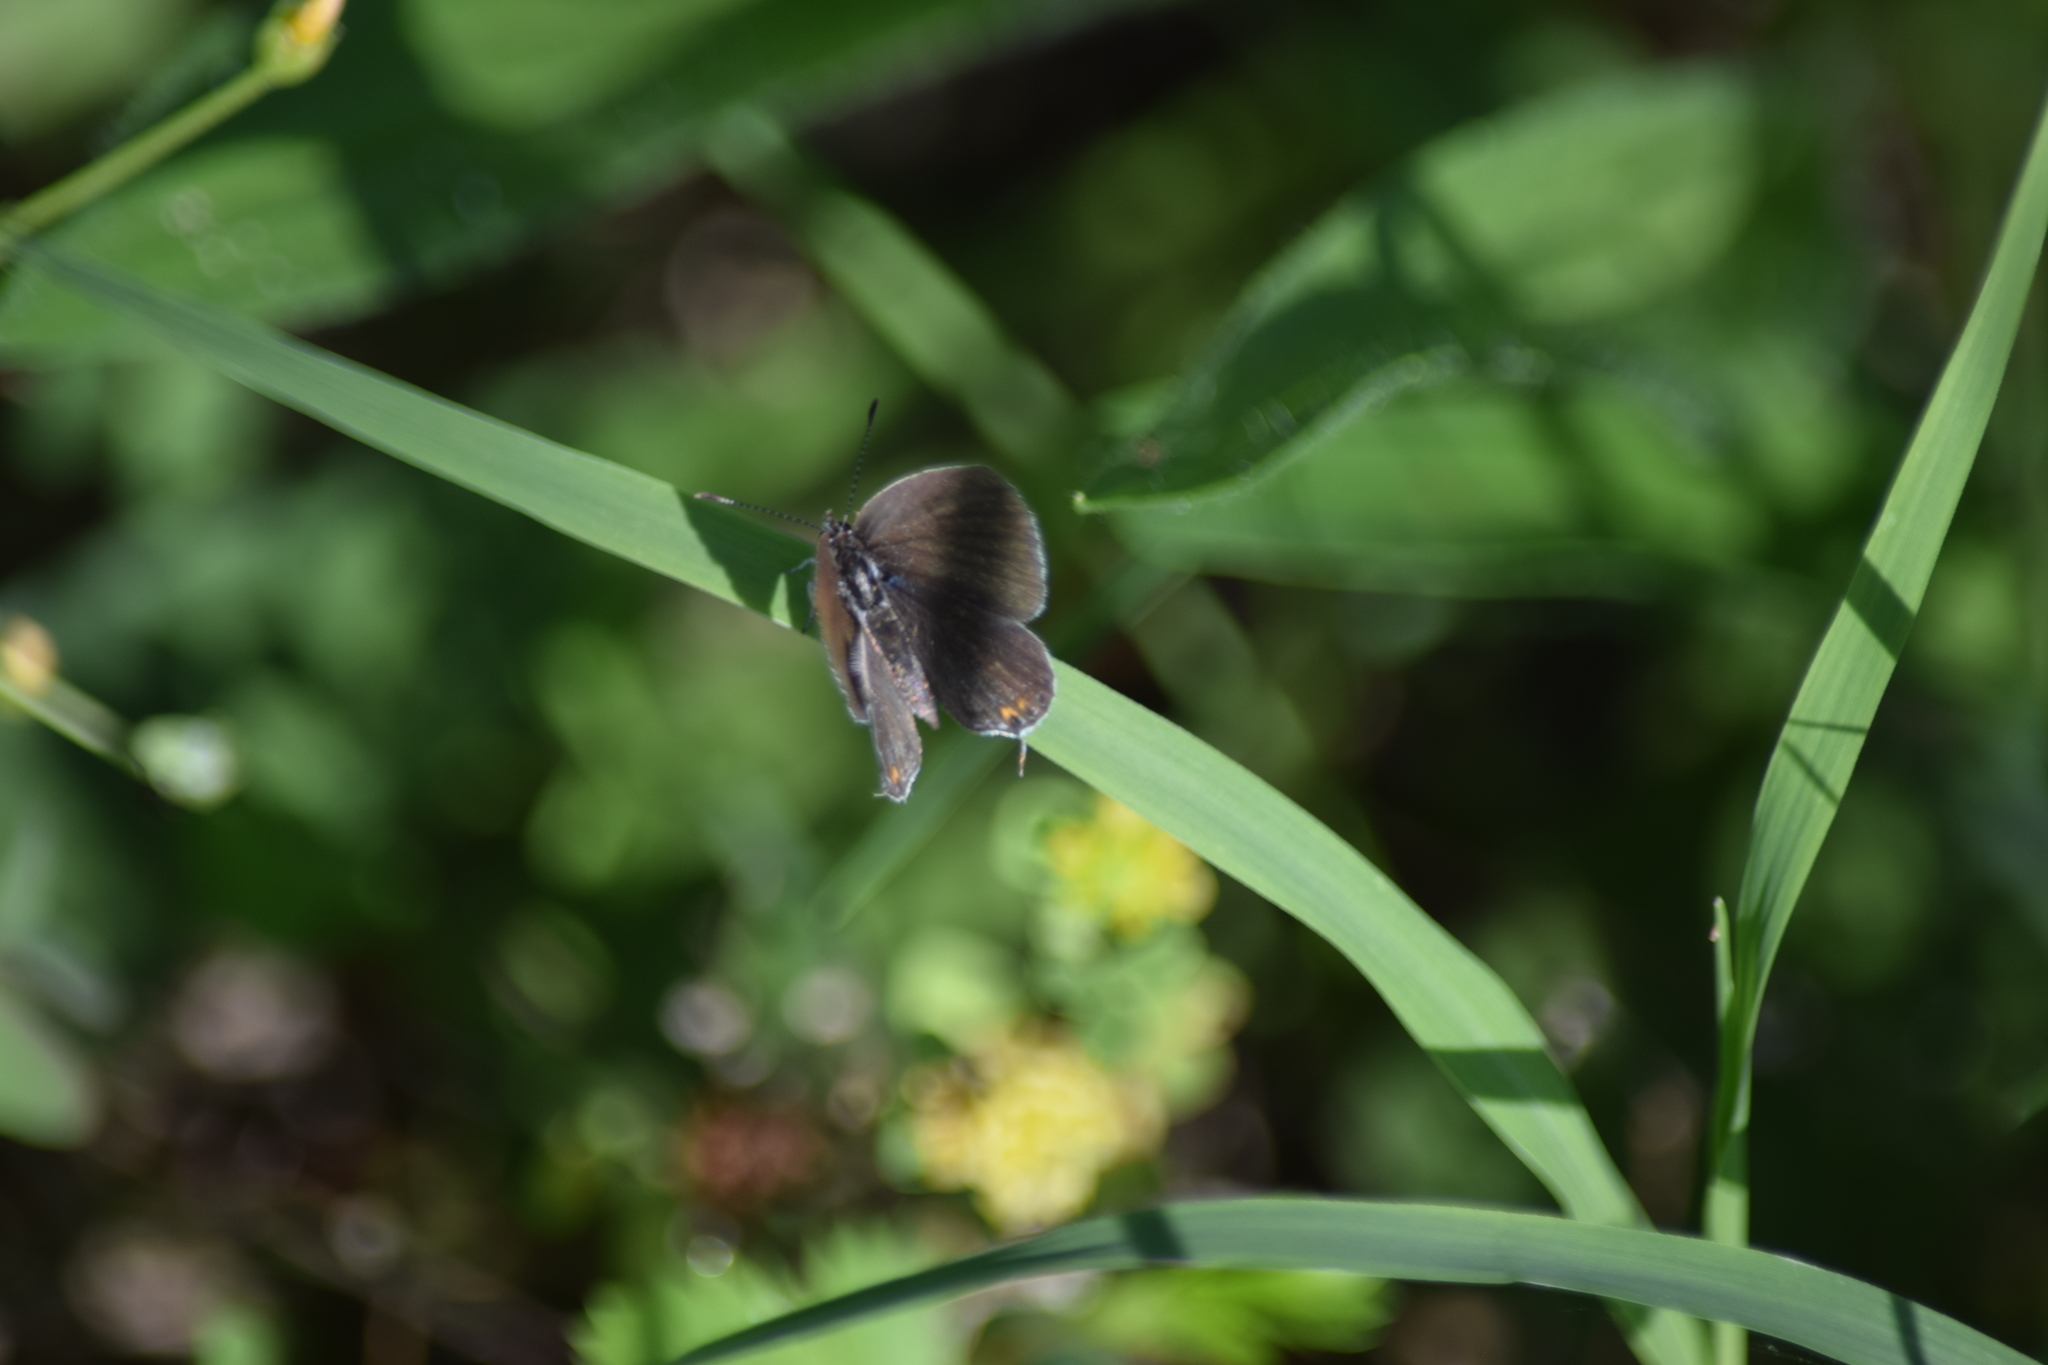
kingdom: Animalia
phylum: Arthropoda
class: Insecta
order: Lepidoptera
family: Lycaenidae
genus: Elkalyce
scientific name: Elkalyce comyntas
